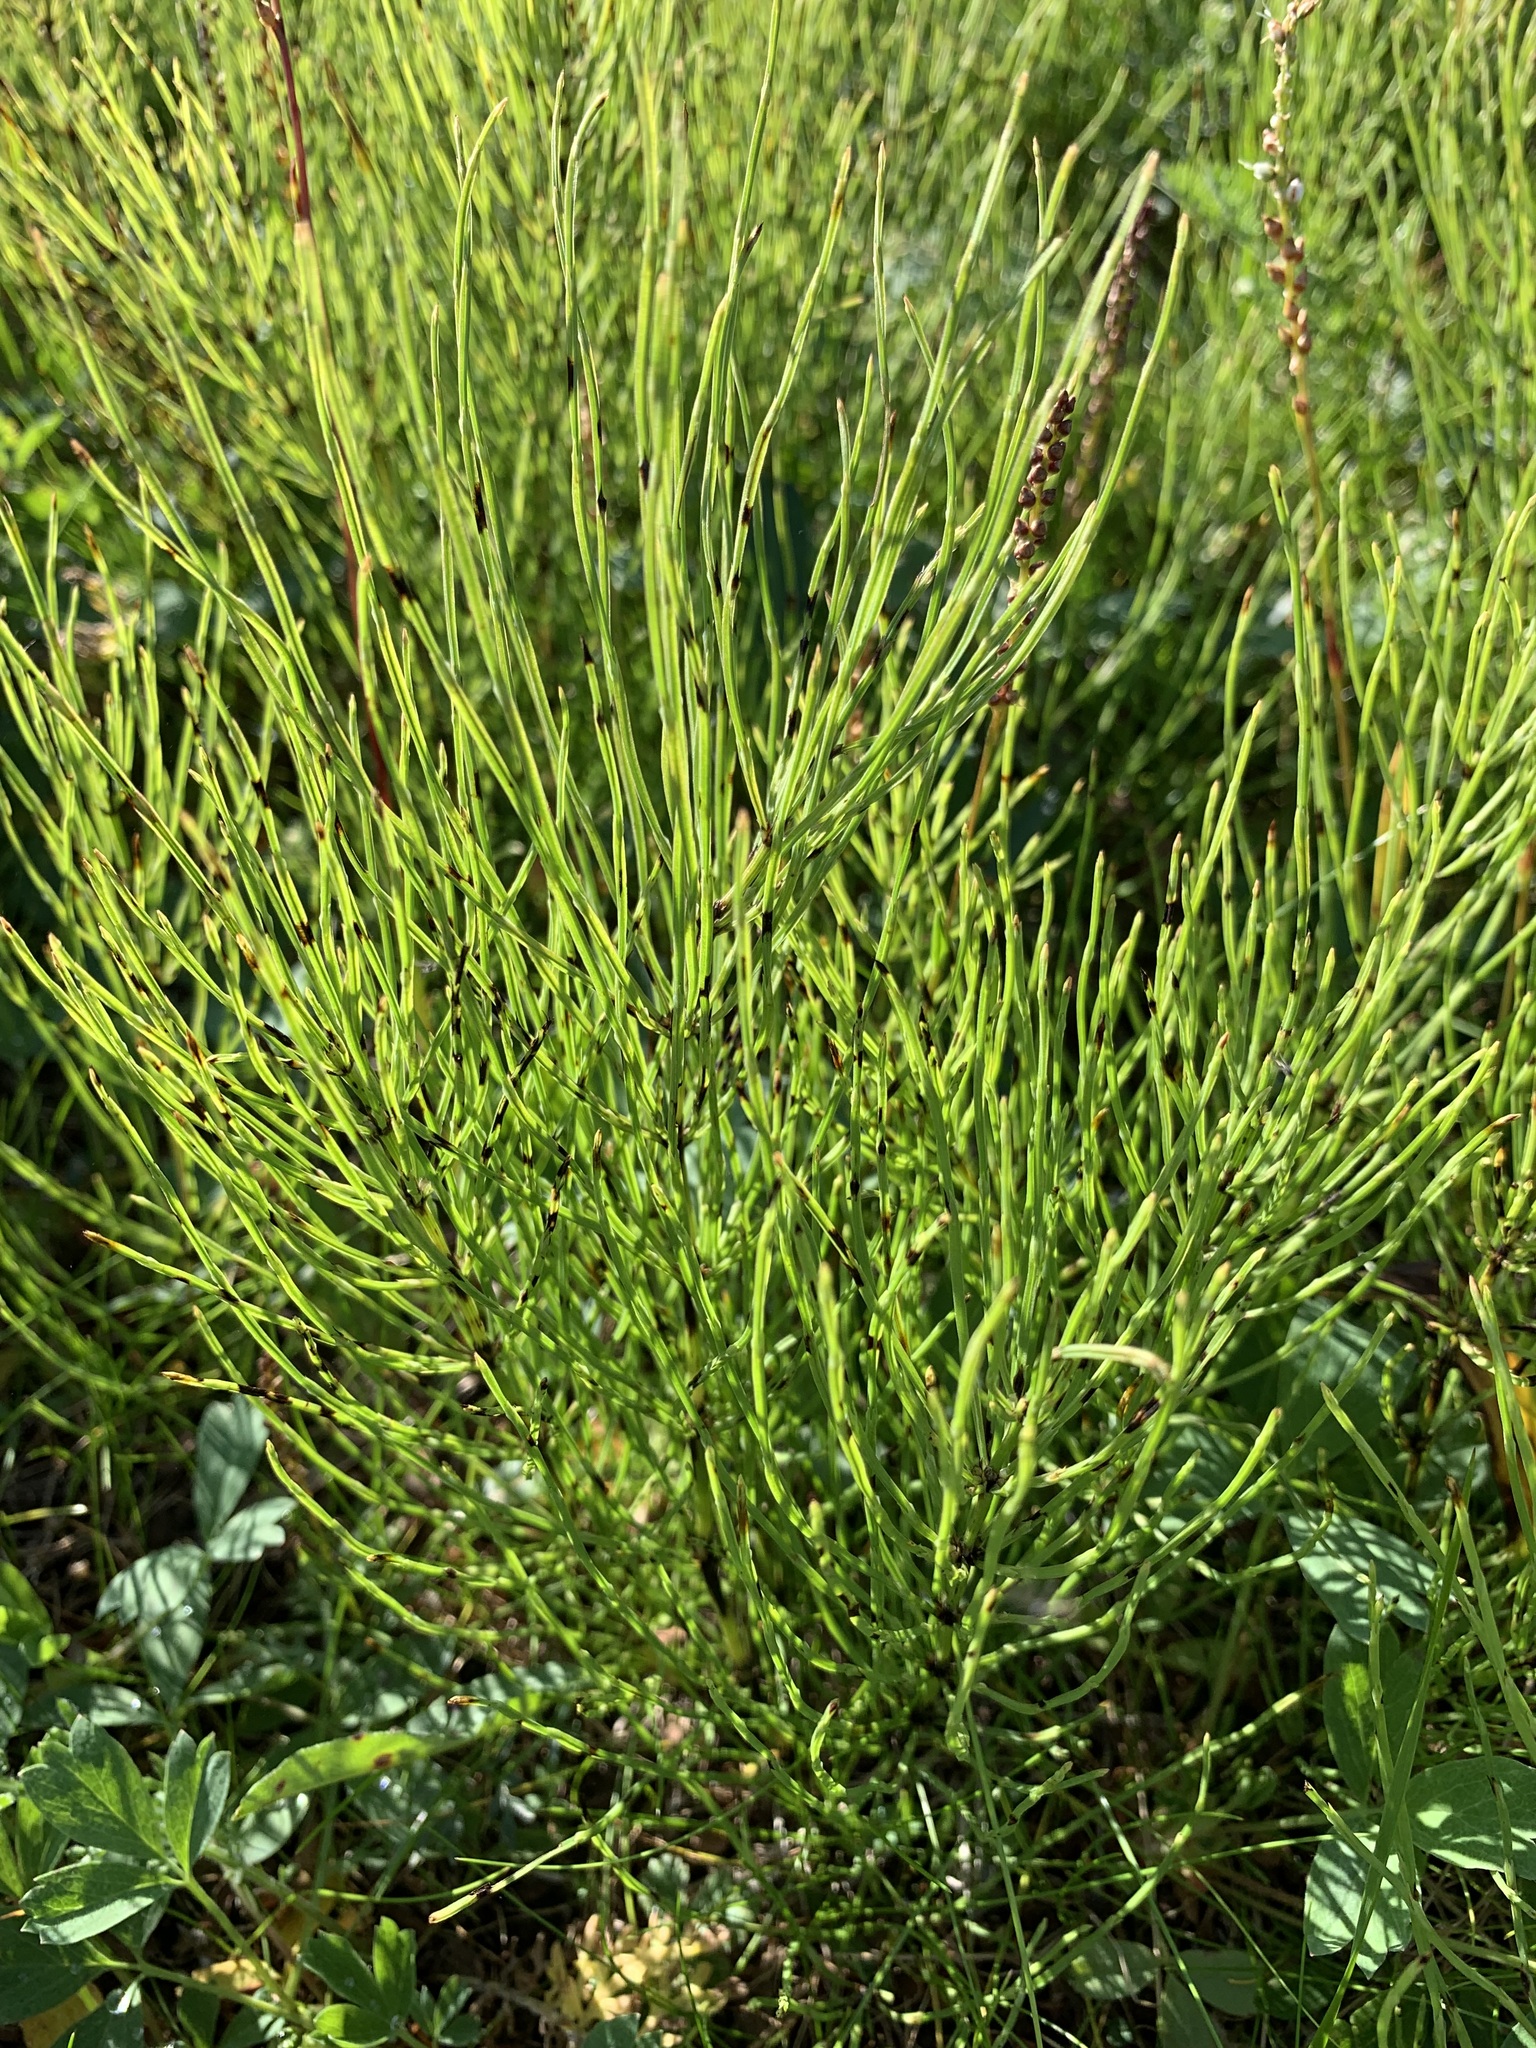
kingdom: Plantae
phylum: Tracheophyta
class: Polypodiopsida
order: Equisetales
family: Equisetaceae
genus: Equisetum
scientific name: Equisetum arvense
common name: Field horsetail
